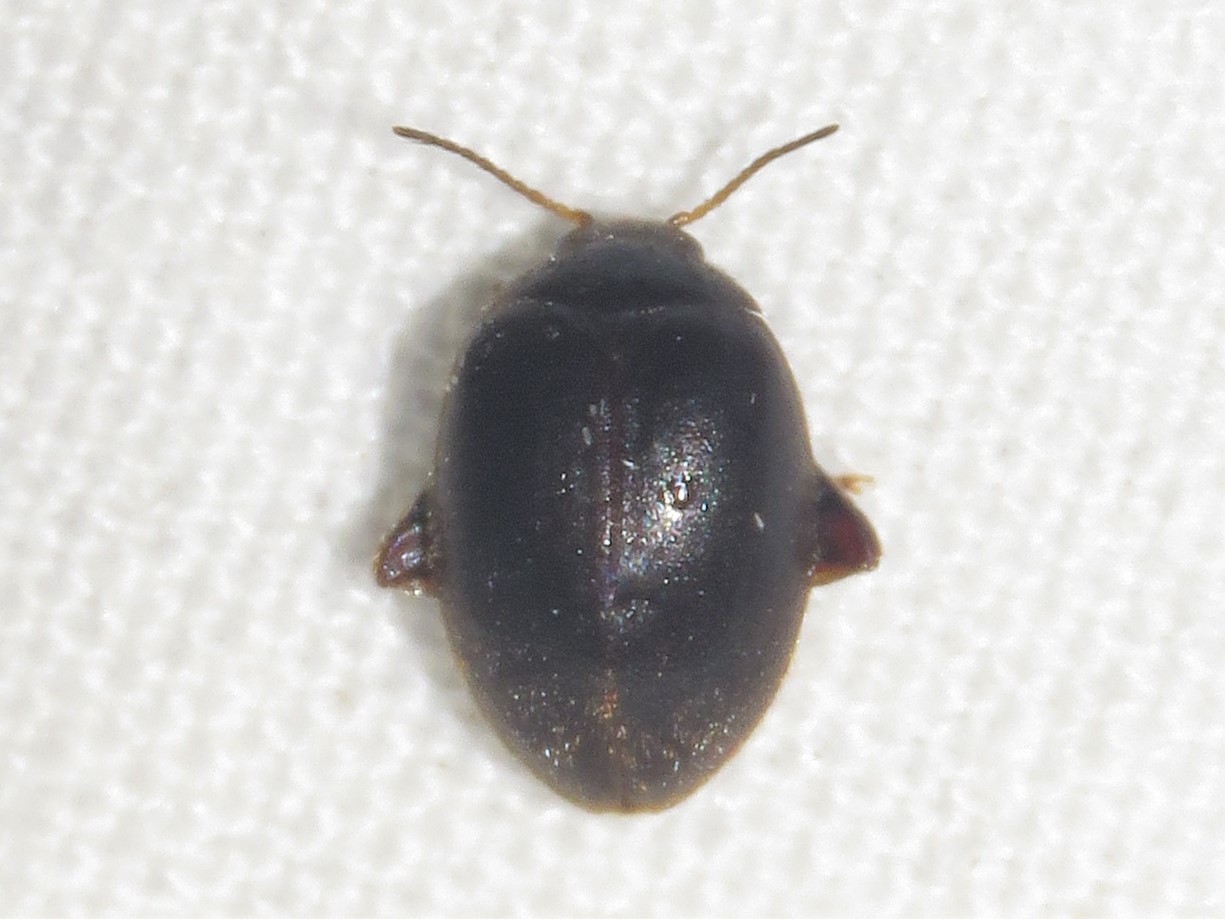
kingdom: Animalia
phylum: Arthropoda
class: Insecta
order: Coleoptera
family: Scirtidae
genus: Scirtes
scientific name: Scirtes tibialis
